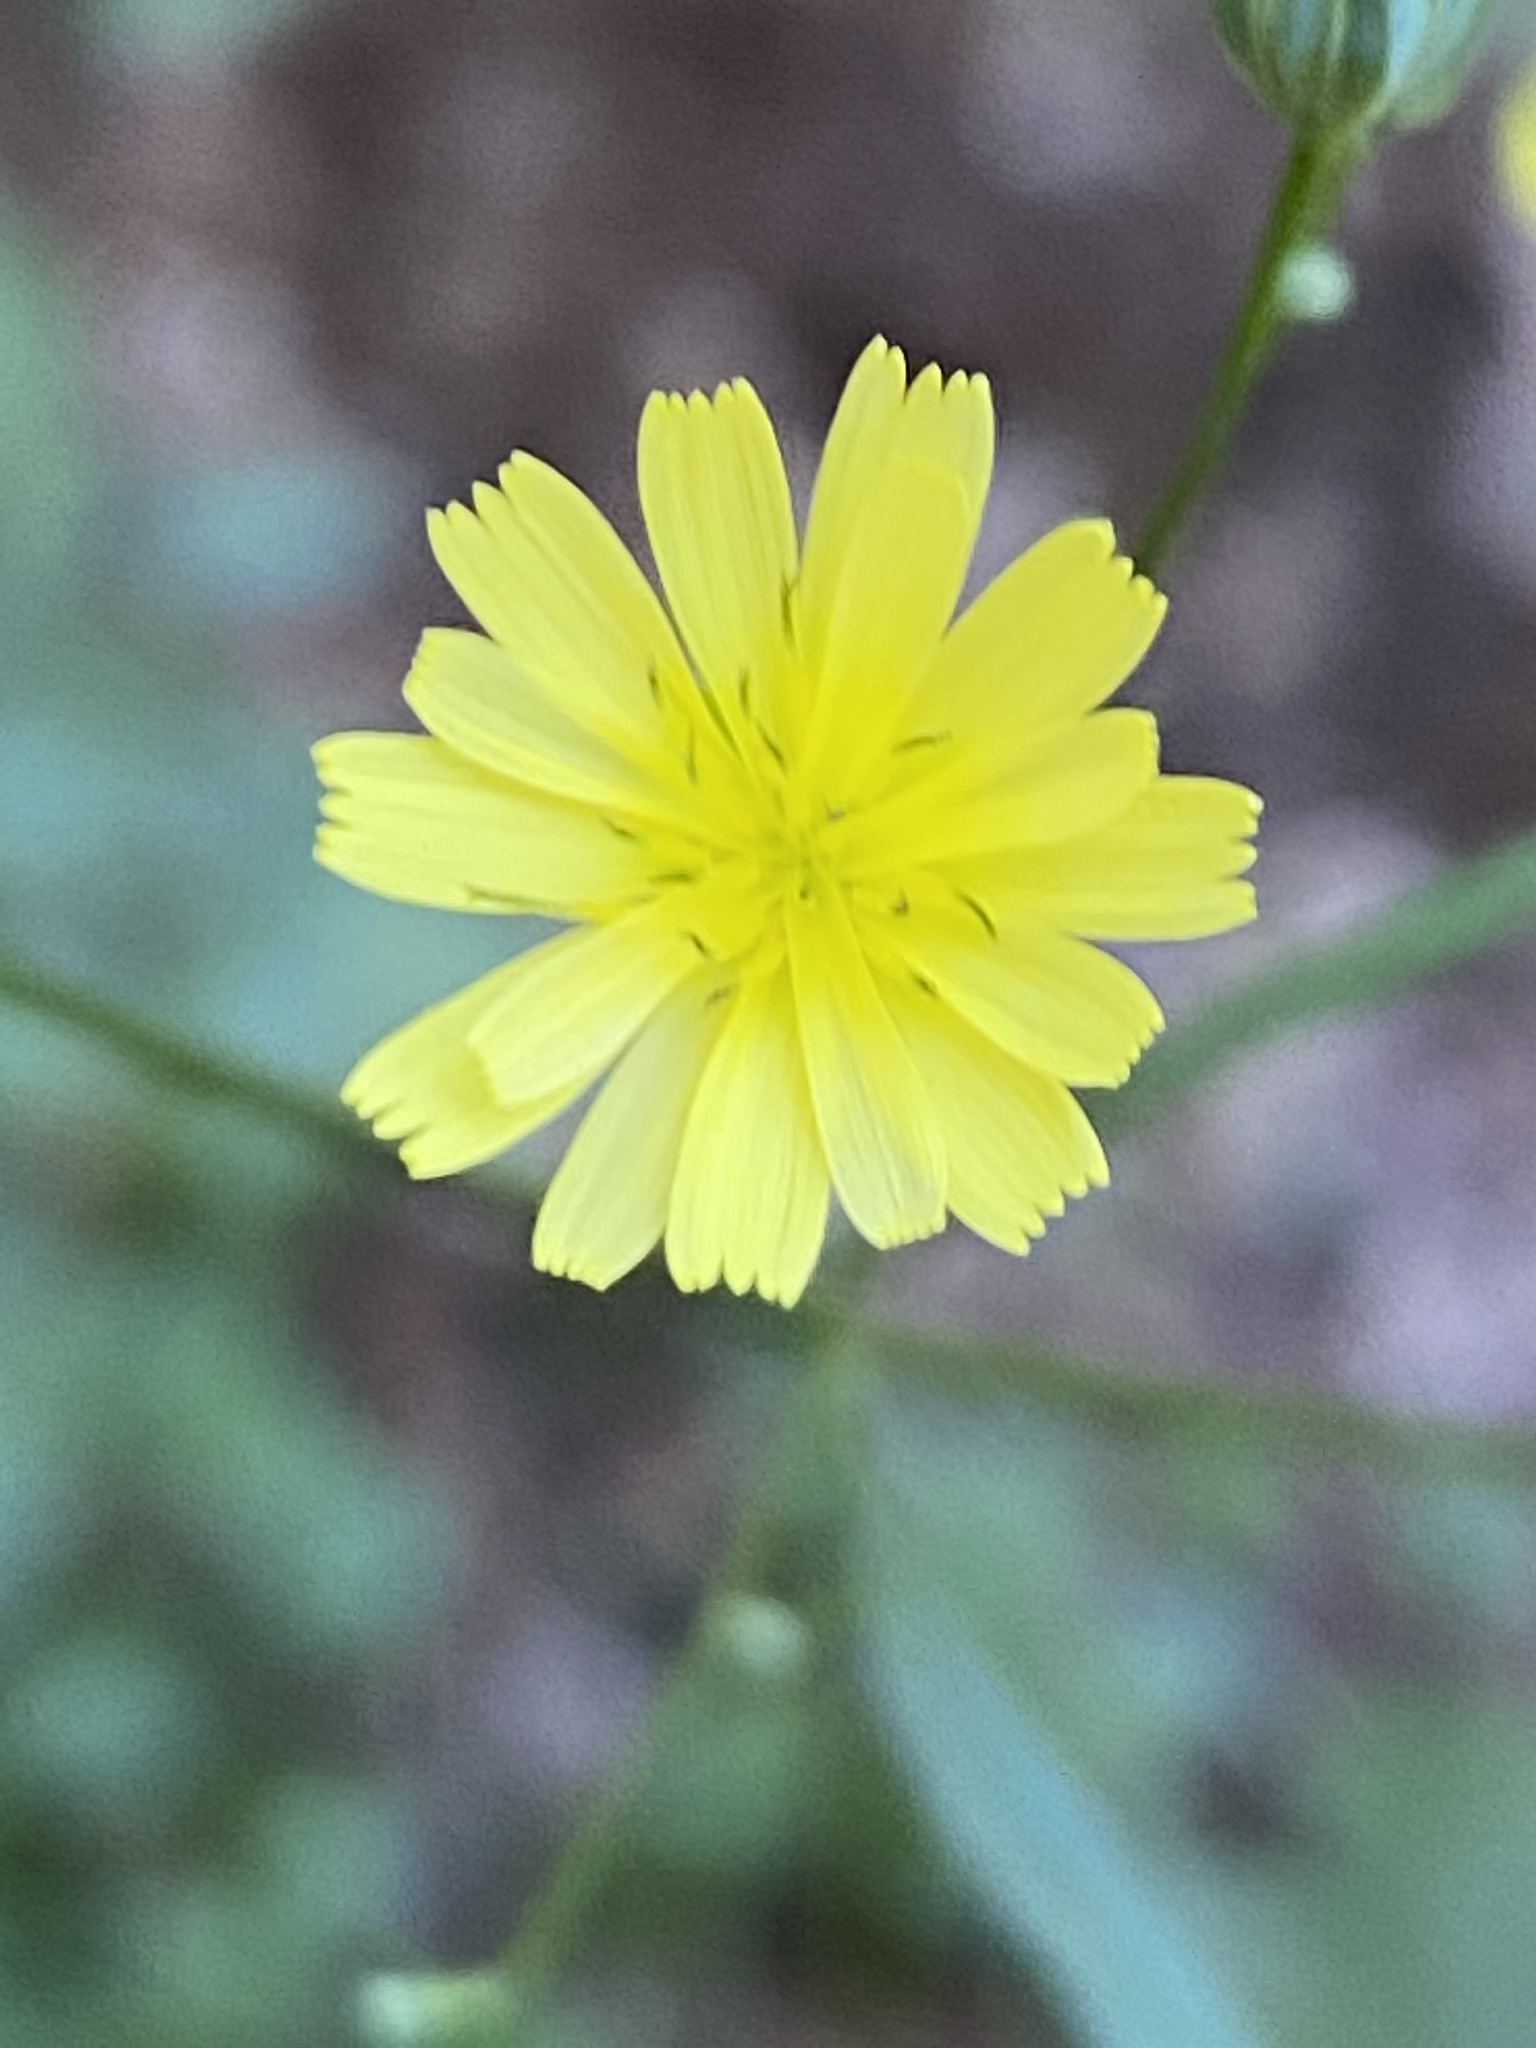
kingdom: Plantae
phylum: Tracheophyta
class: Magnoliopsida
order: Asterales
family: Asteraceae
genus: Lapsana
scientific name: Lapsana communis
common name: Nipplewort
